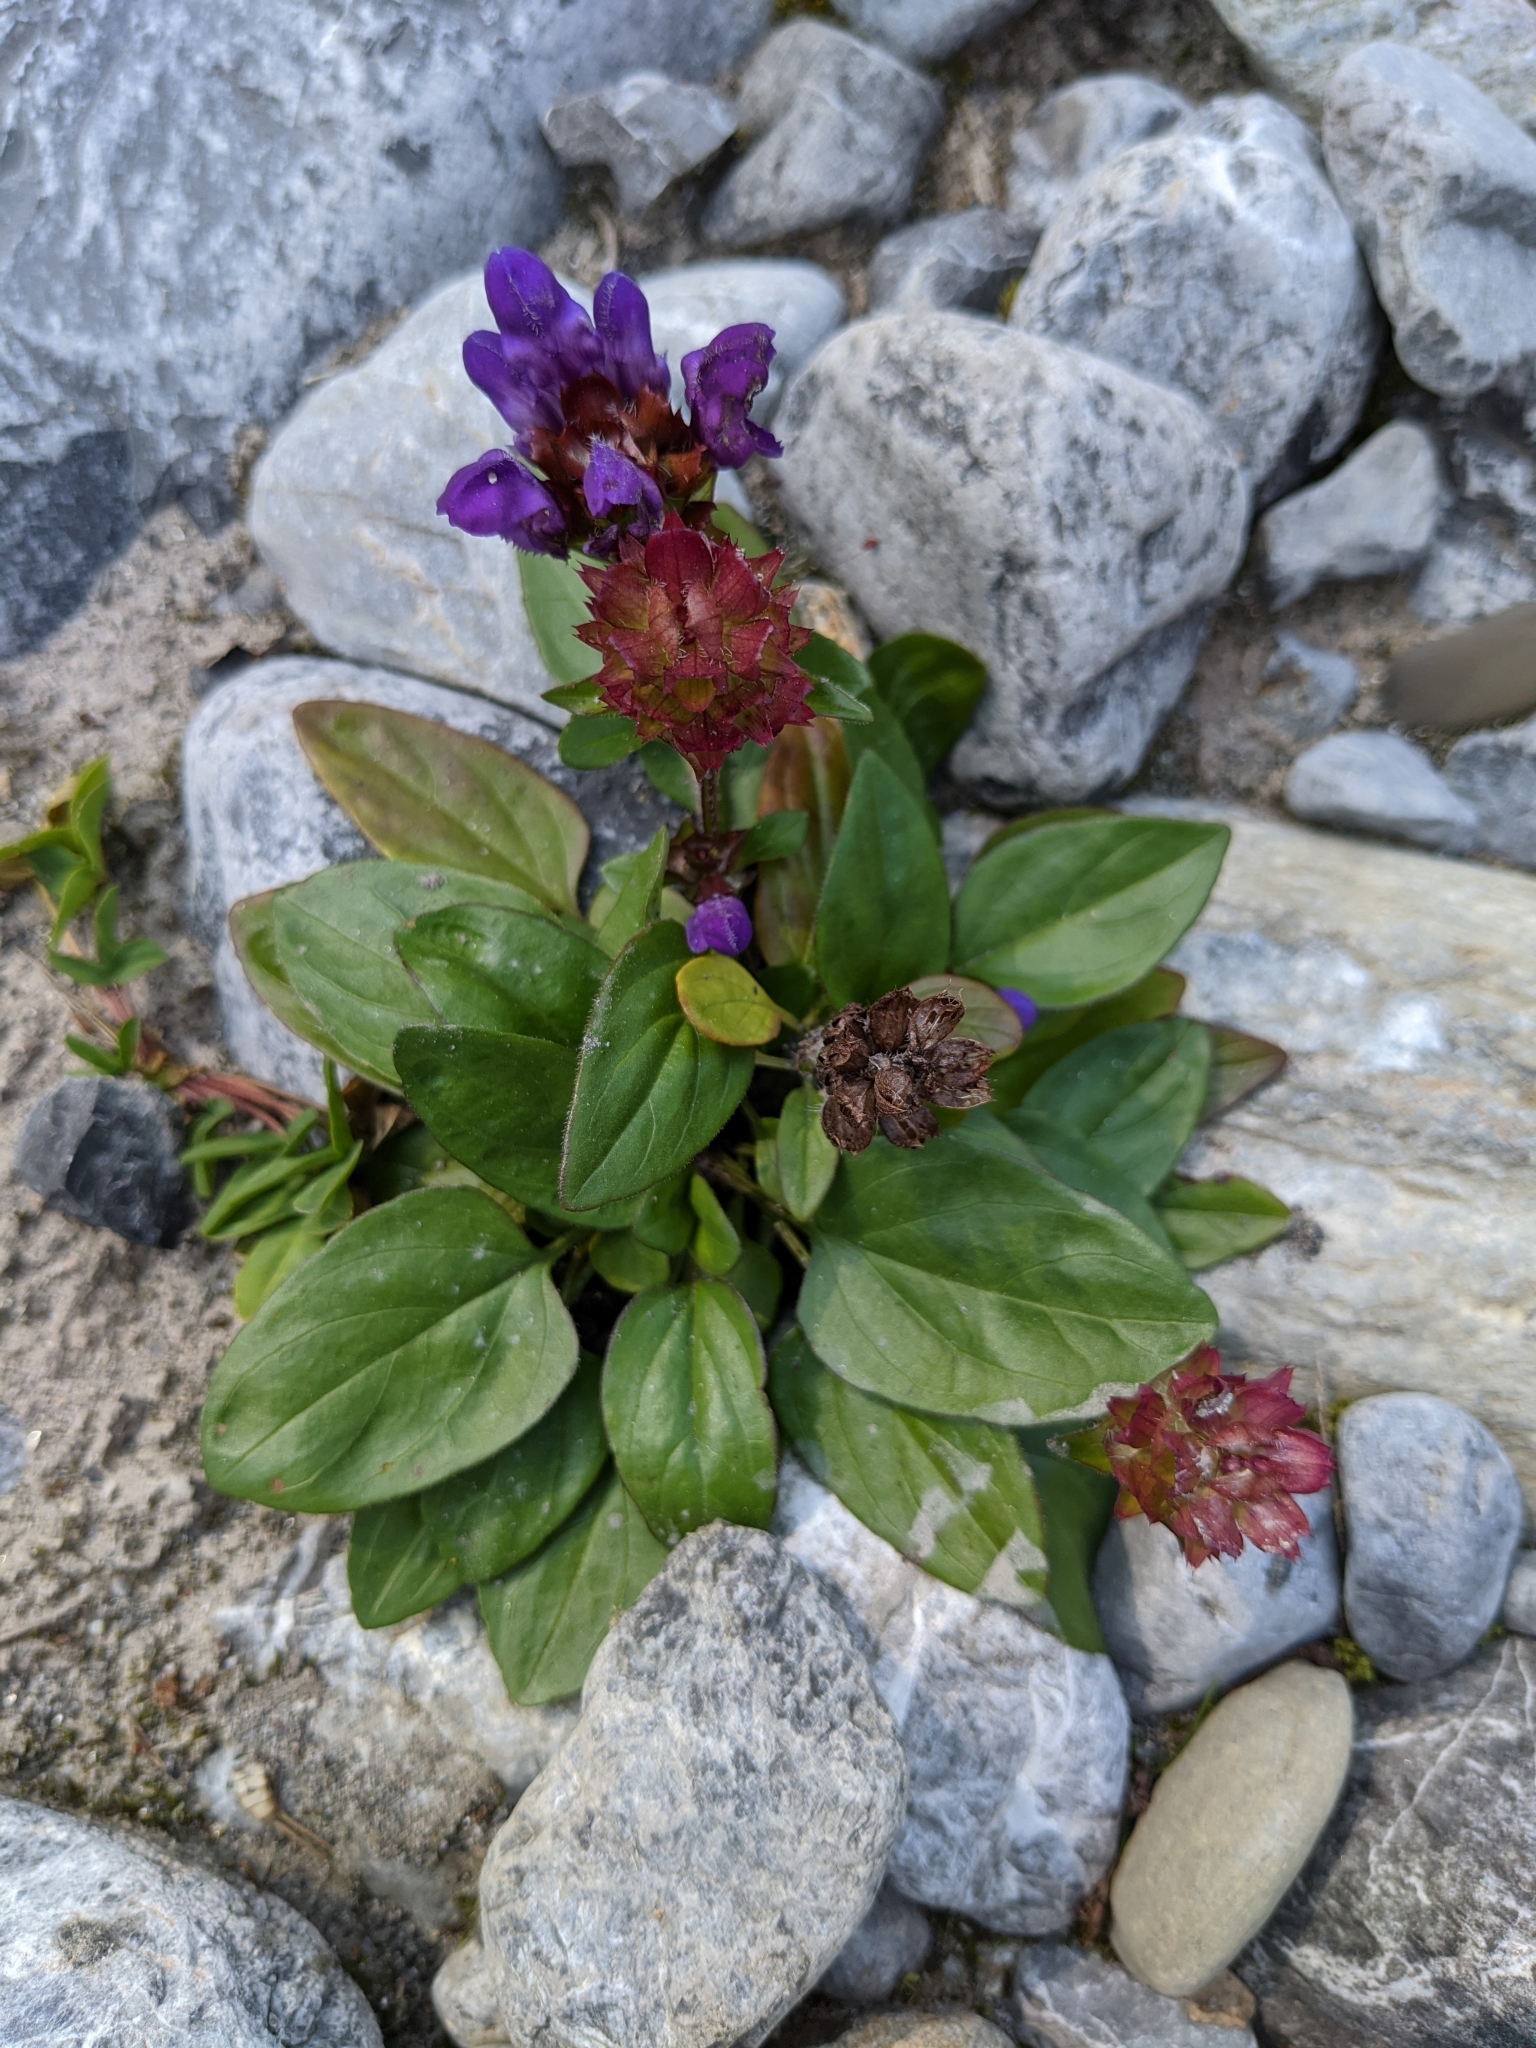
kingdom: Plantae
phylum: Tracheophyta
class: Magnoliopsida
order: Lamiales
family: Lamiaceae
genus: Prunella
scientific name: Prunella grandiflora
